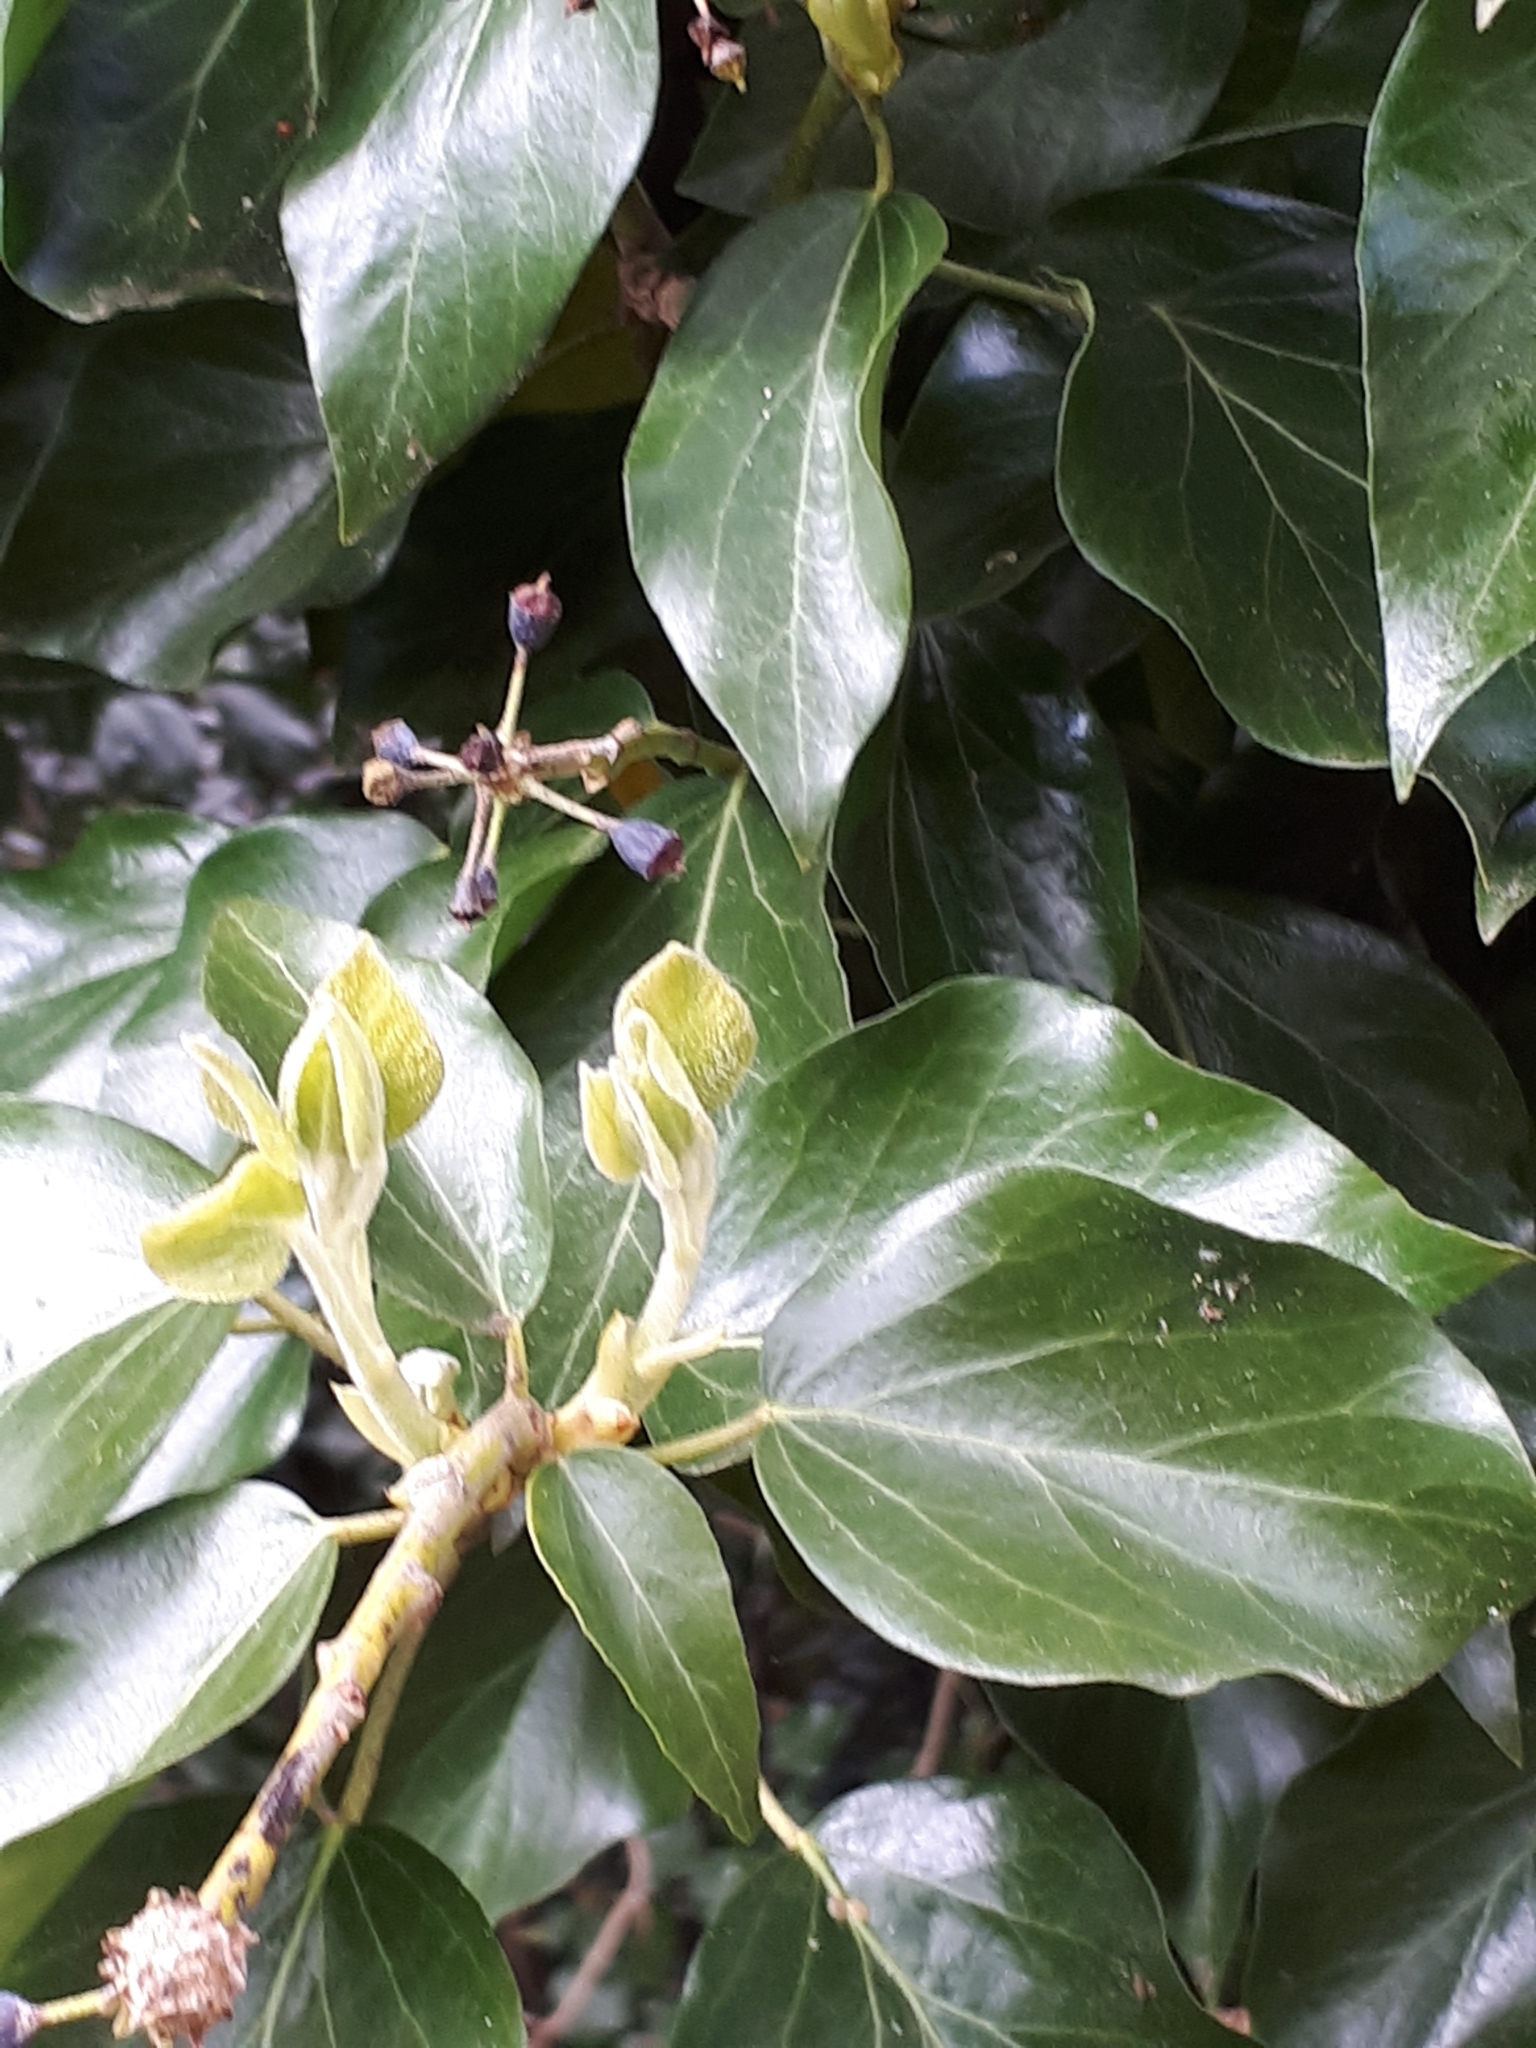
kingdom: Plantae
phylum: Tracheophyta
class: Magnoliopsida
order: Apiales
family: Araliaceae
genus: Hedera
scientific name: Hedera helix
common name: Ivy
